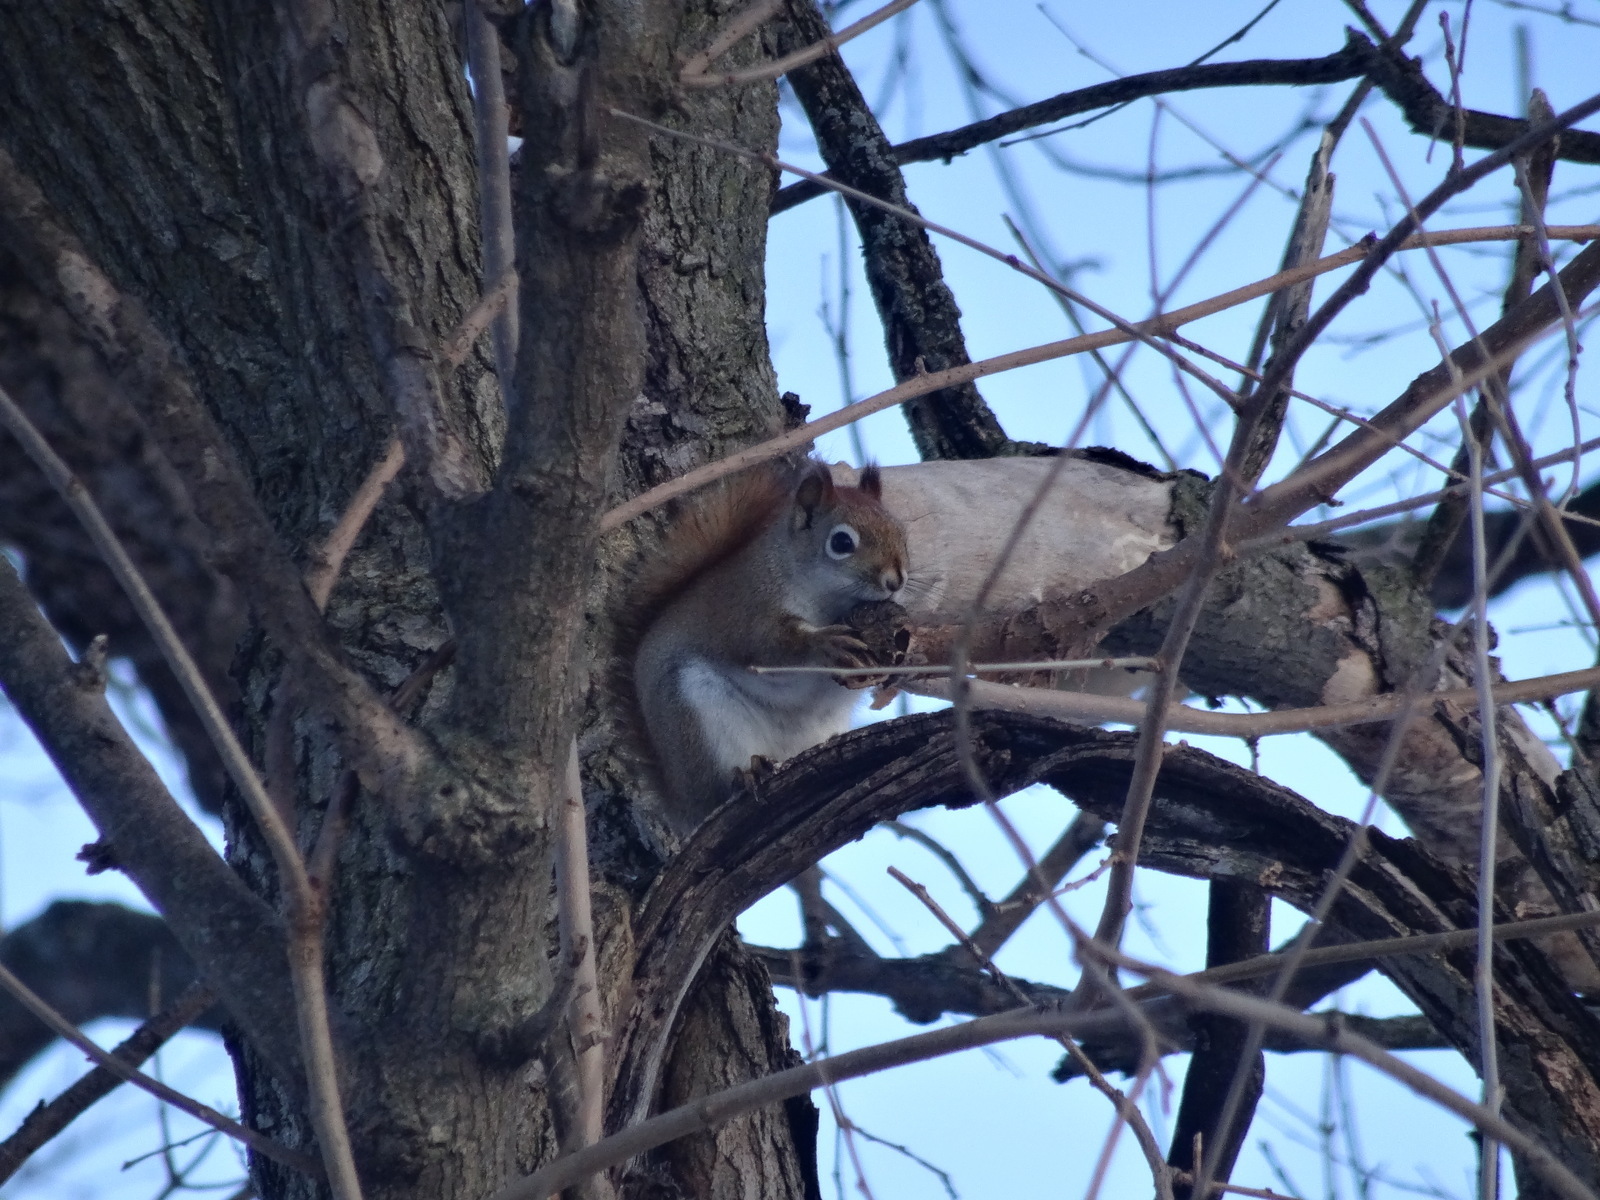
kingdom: Animalia
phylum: Chordata
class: Mammalia
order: Rodentia
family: Sciuridae
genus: Tamiasciurus
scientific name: Tamiasciurus hudsonicus
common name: Red squirrel
